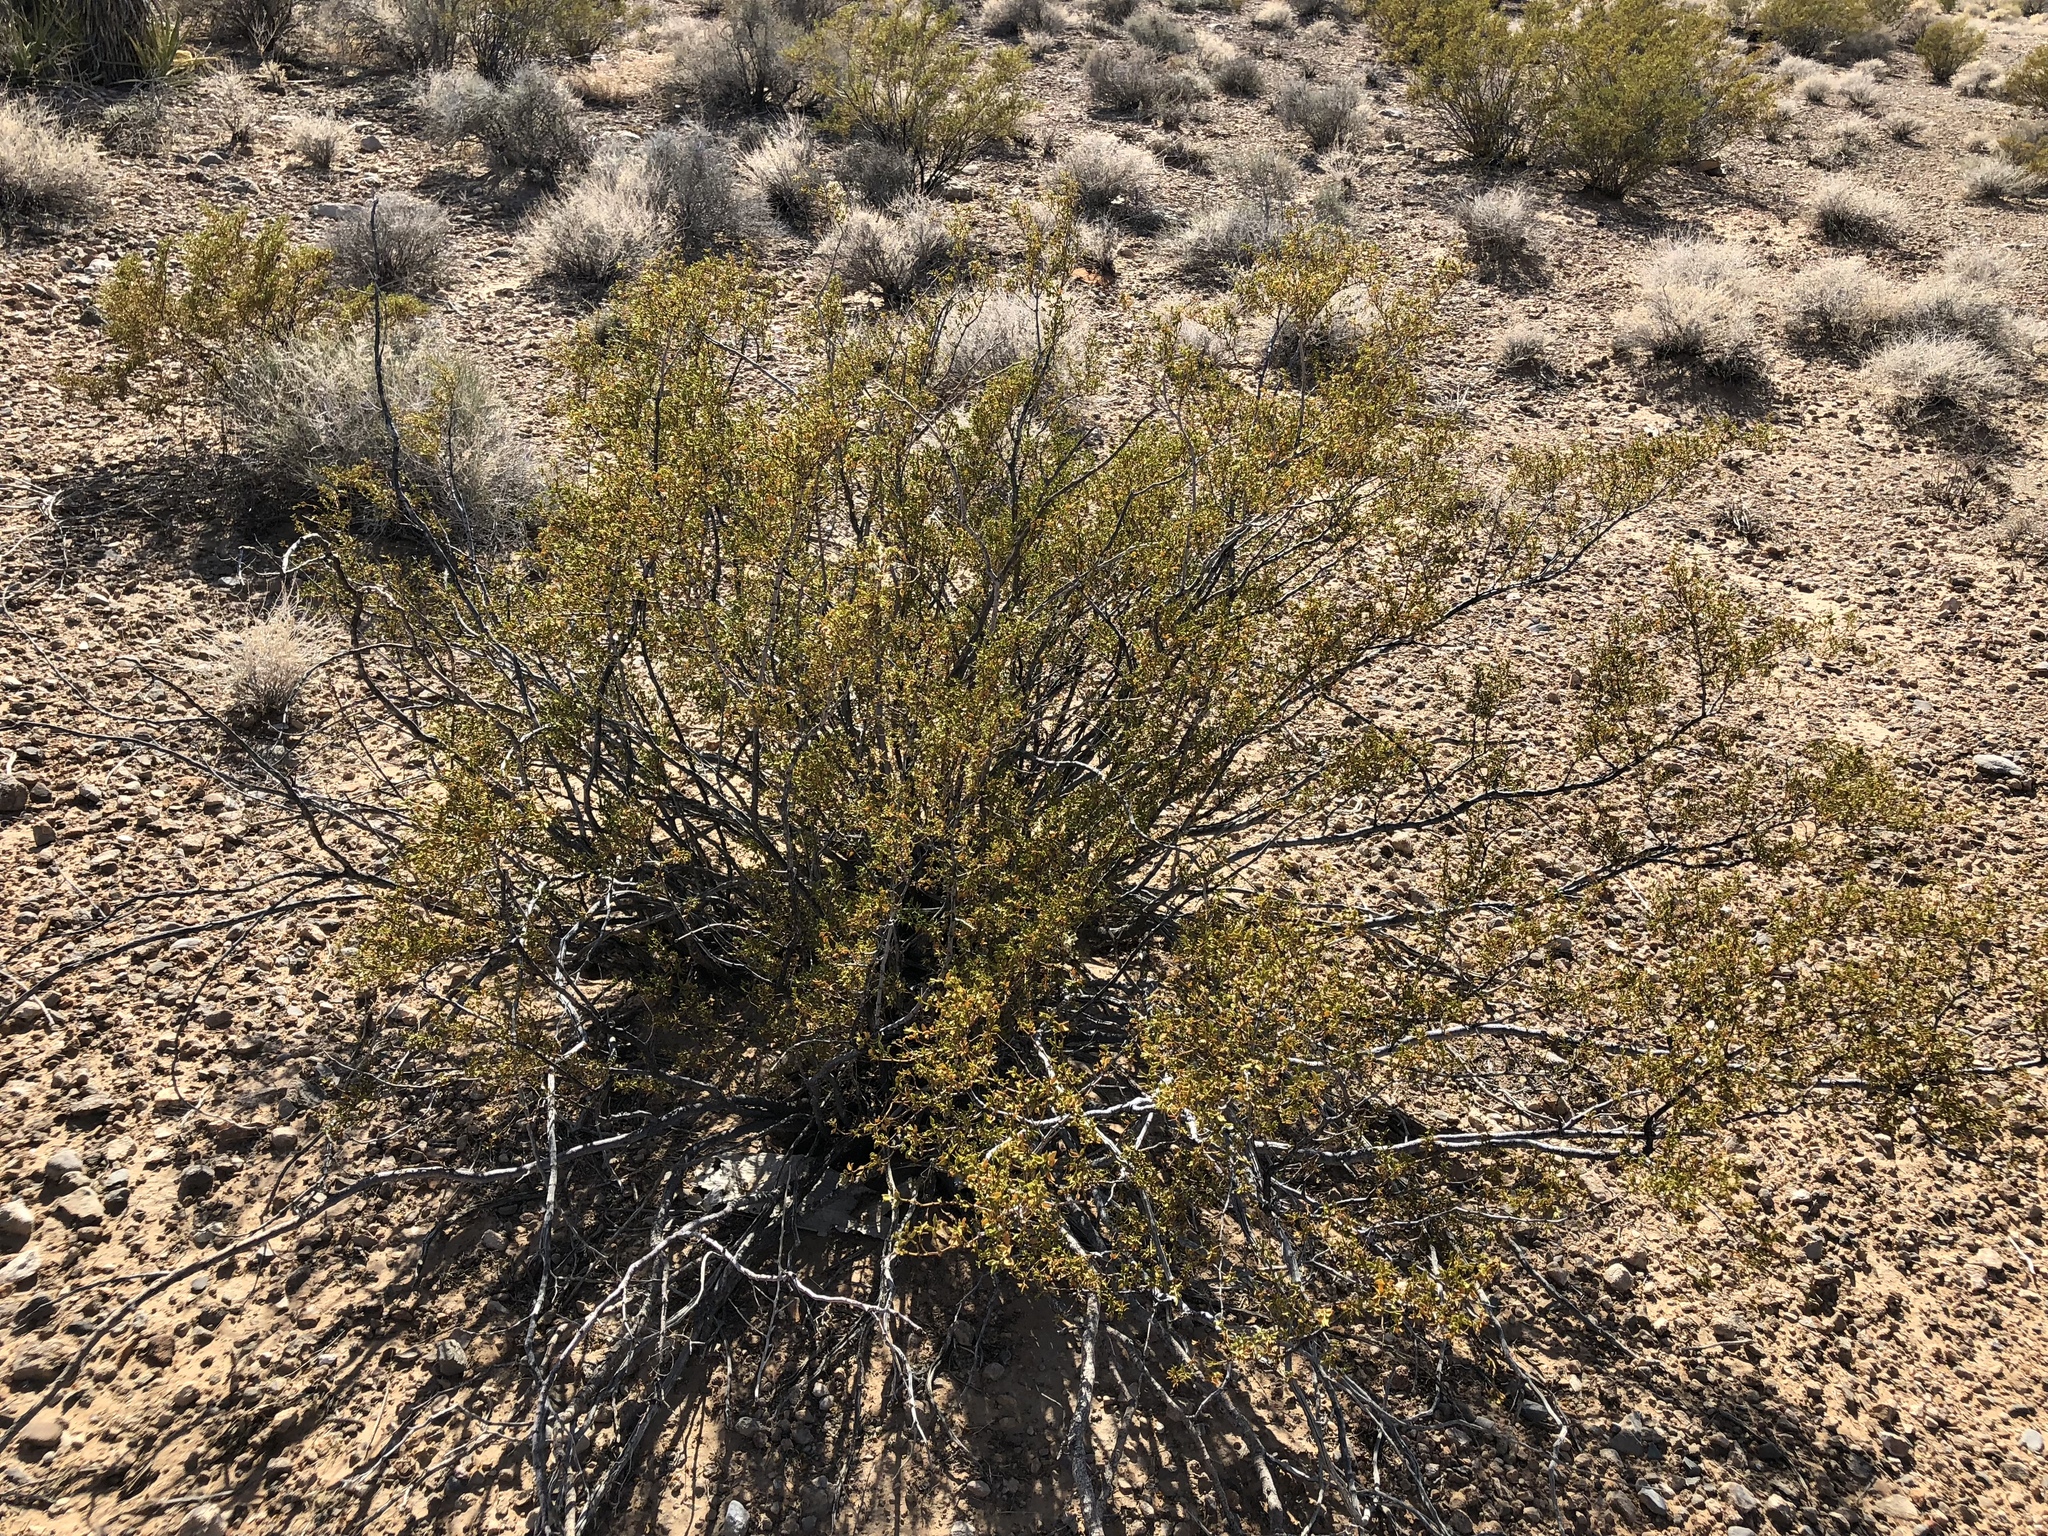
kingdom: Plantae
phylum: Tracheophyta
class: Magnoliopsida
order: Zygophyllales
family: Zygophyllaceae
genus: Larrea
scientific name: Larrea tridentata
